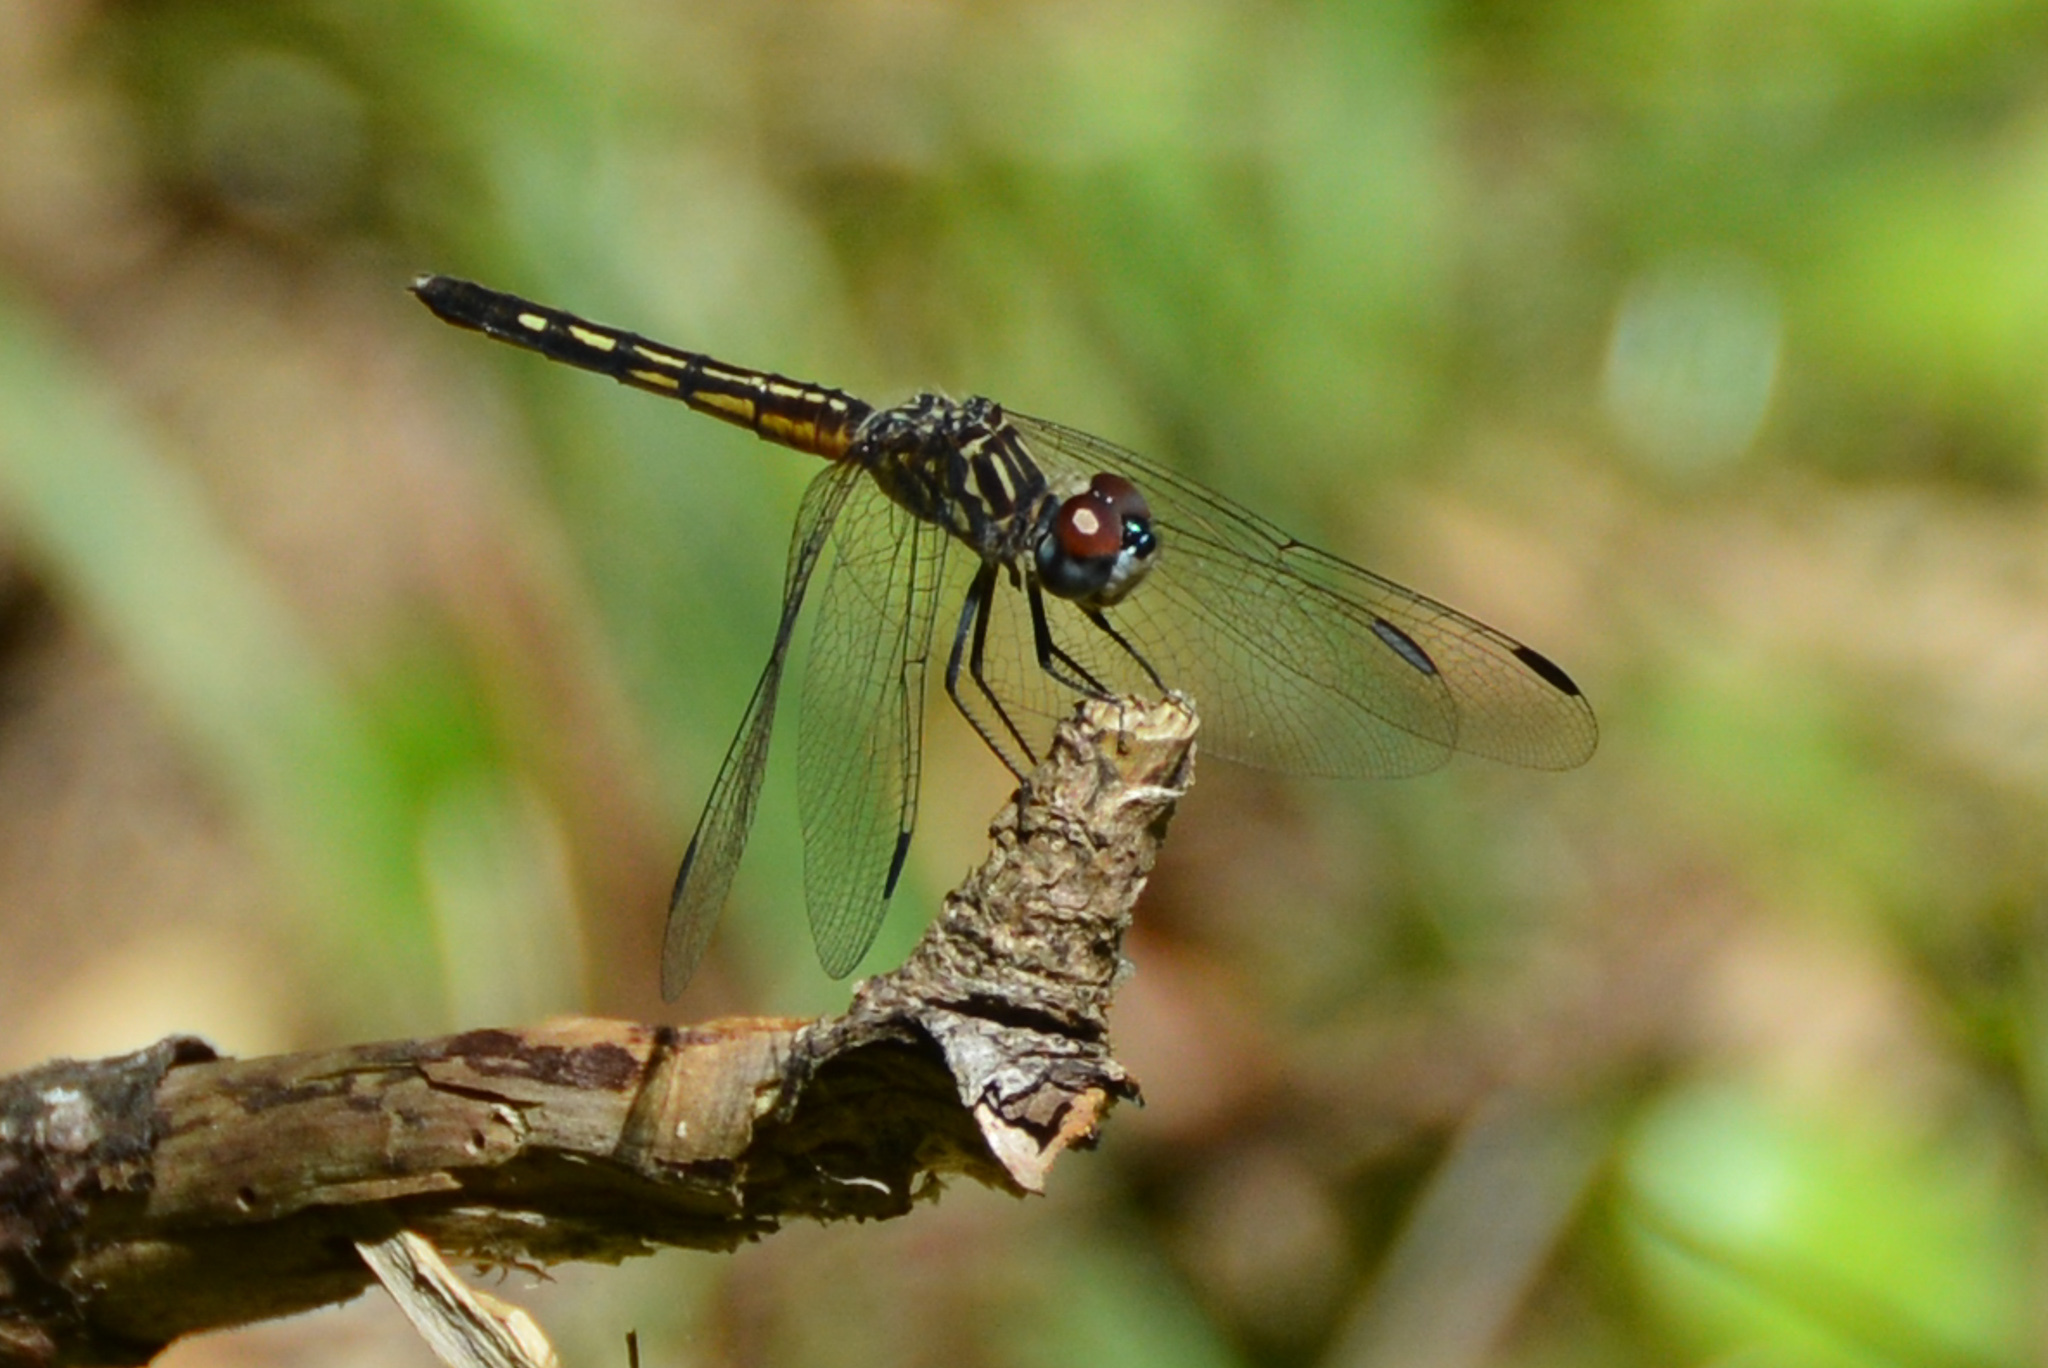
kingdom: Animalia
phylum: Arthropoda
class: Insecta
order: Odonata
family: Libellulidae
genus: Pachydiplax
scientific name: Pachydiplax longipennis
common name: Blue dasher
